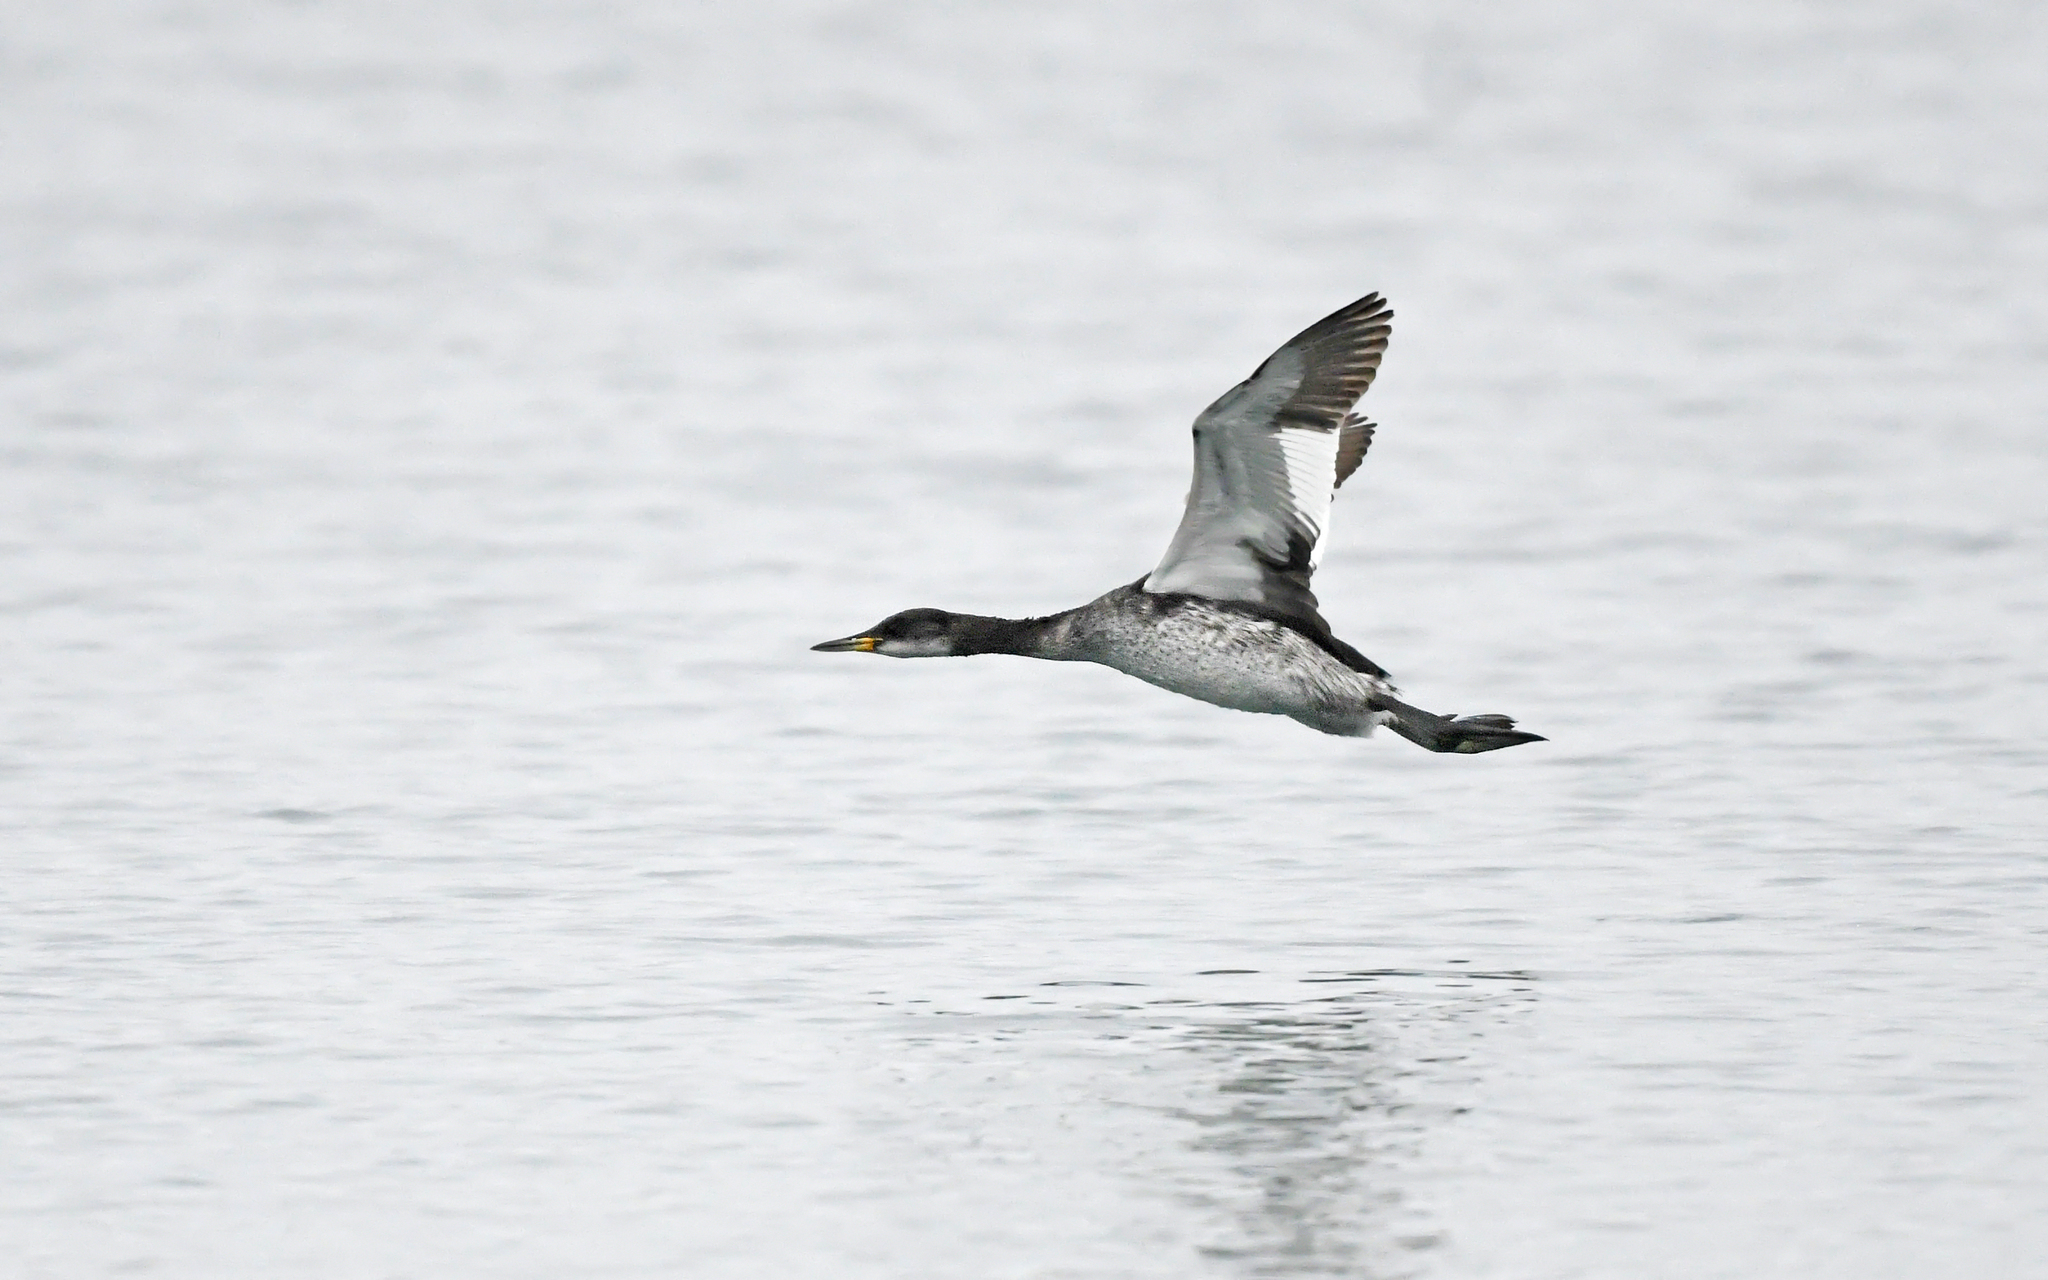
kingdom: Animalia
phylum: Chordata
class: Aves
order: Podicipediformes
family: Podicipedidae
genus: Podiceps
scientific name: Podiceps grisegena
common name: Red-necked grebe
